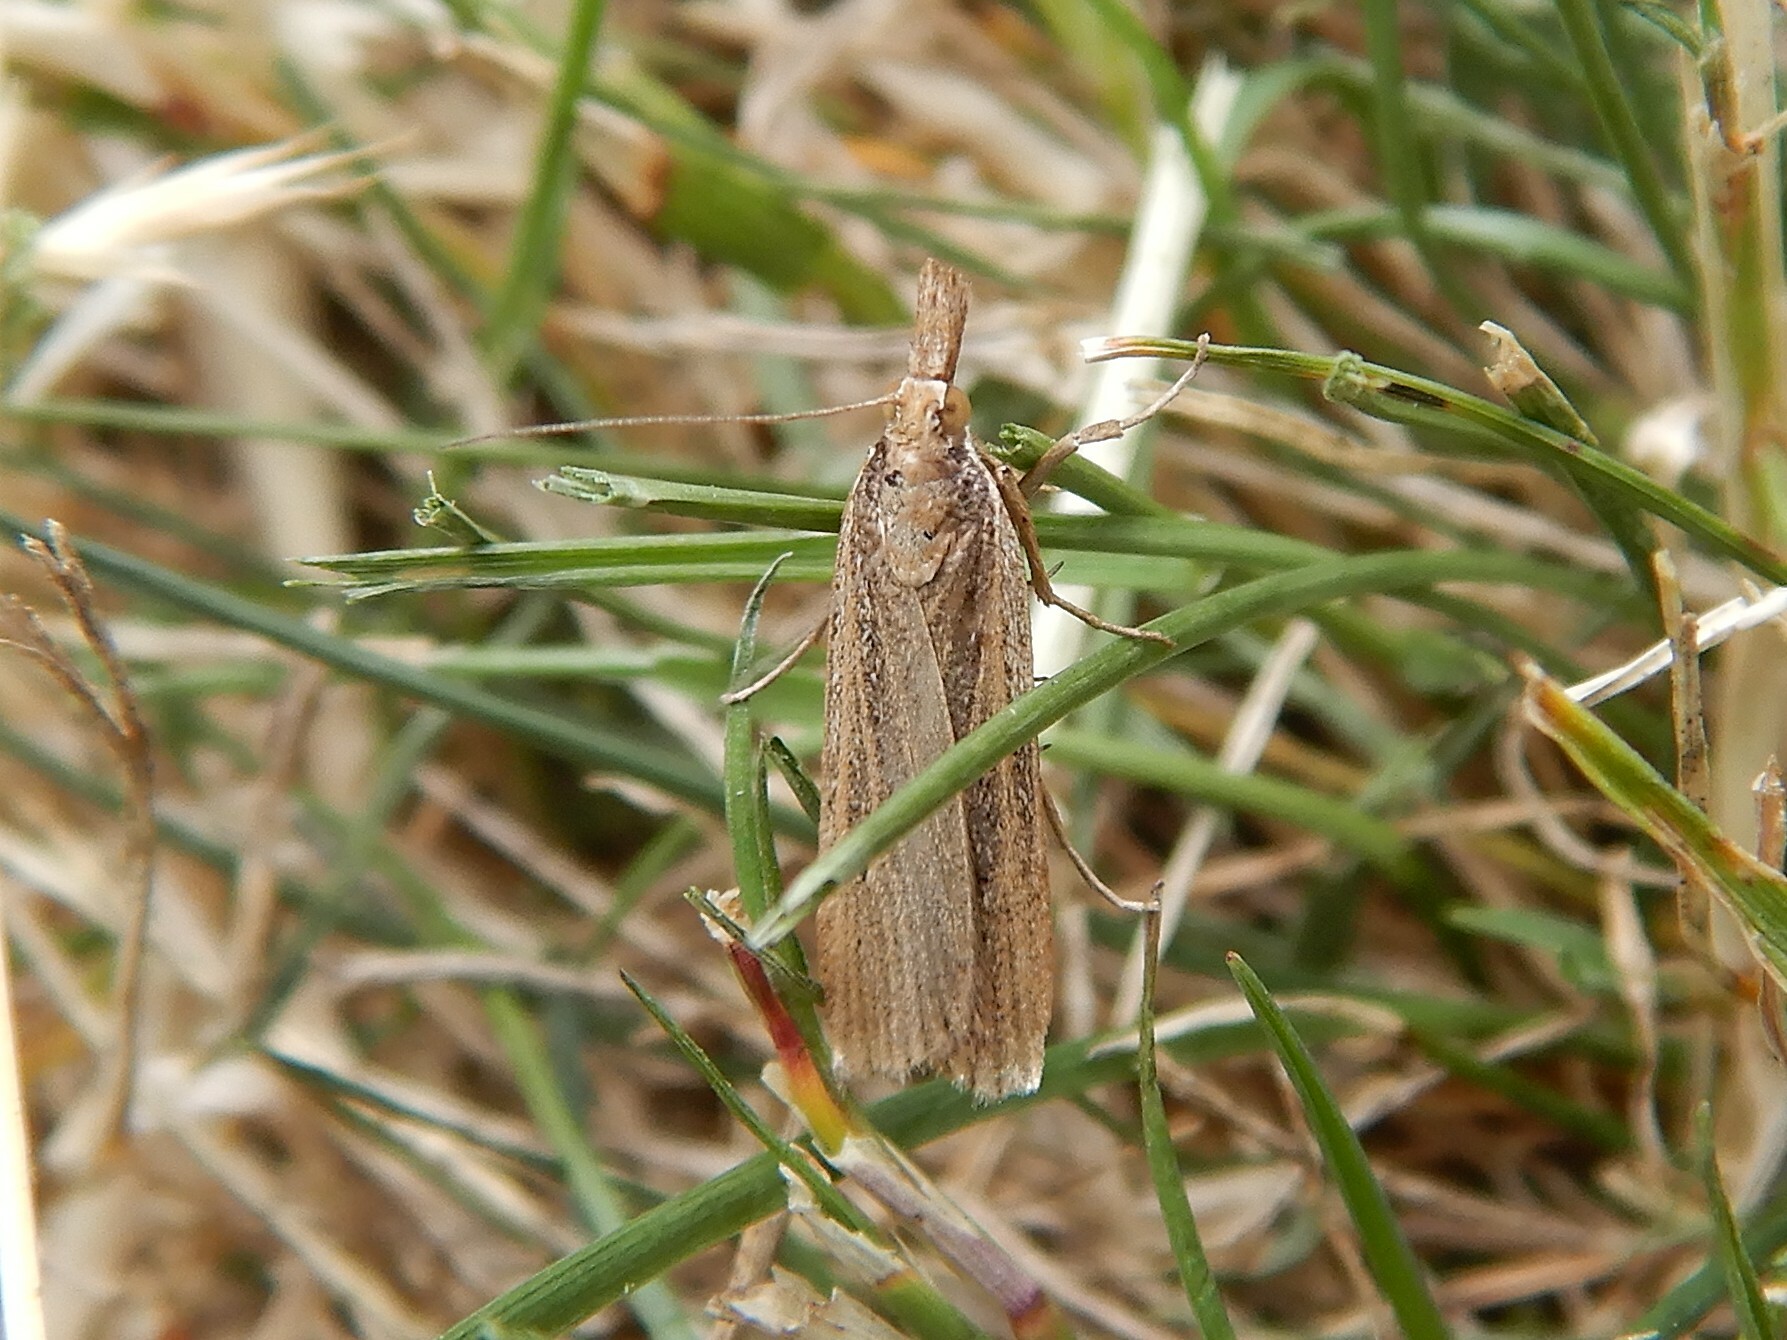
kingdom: Animalia
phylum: Arthropoda
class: Insecta
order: Lepidoptera
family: Crambidae
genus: Eudonia
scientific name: Eudonia sabulosella
